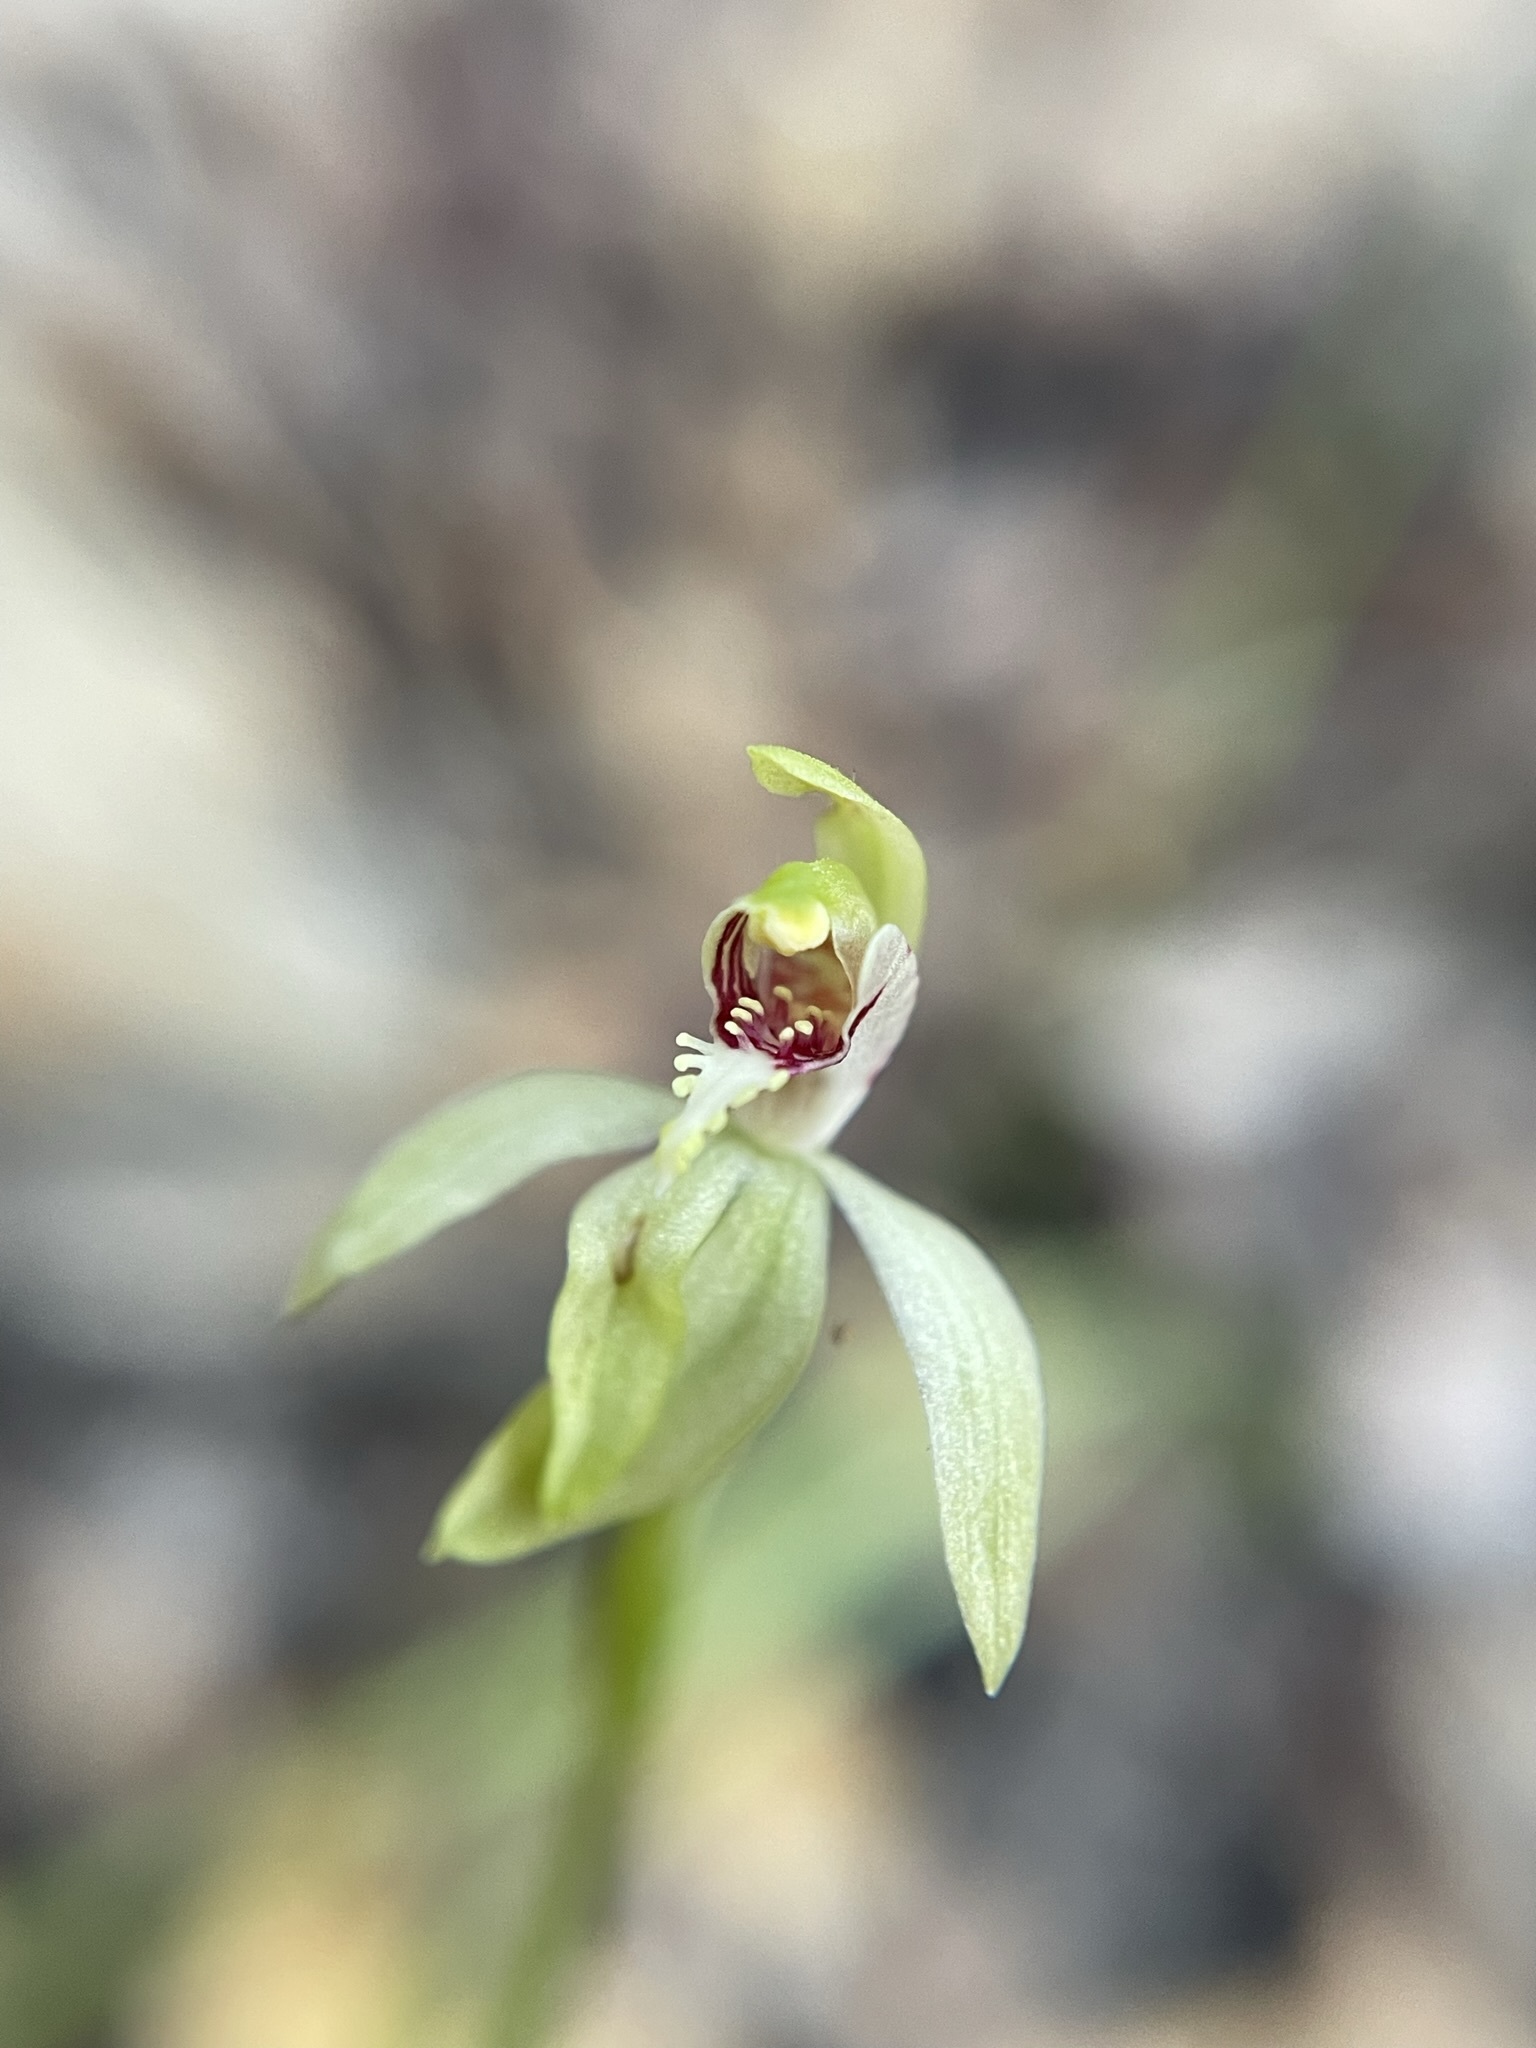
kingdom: Plantae
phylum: Tracheophyta
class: Liliopsida
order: Asparagales
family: Orchidaceae
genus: Caladenia
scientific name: Caladenia chlorostyla
